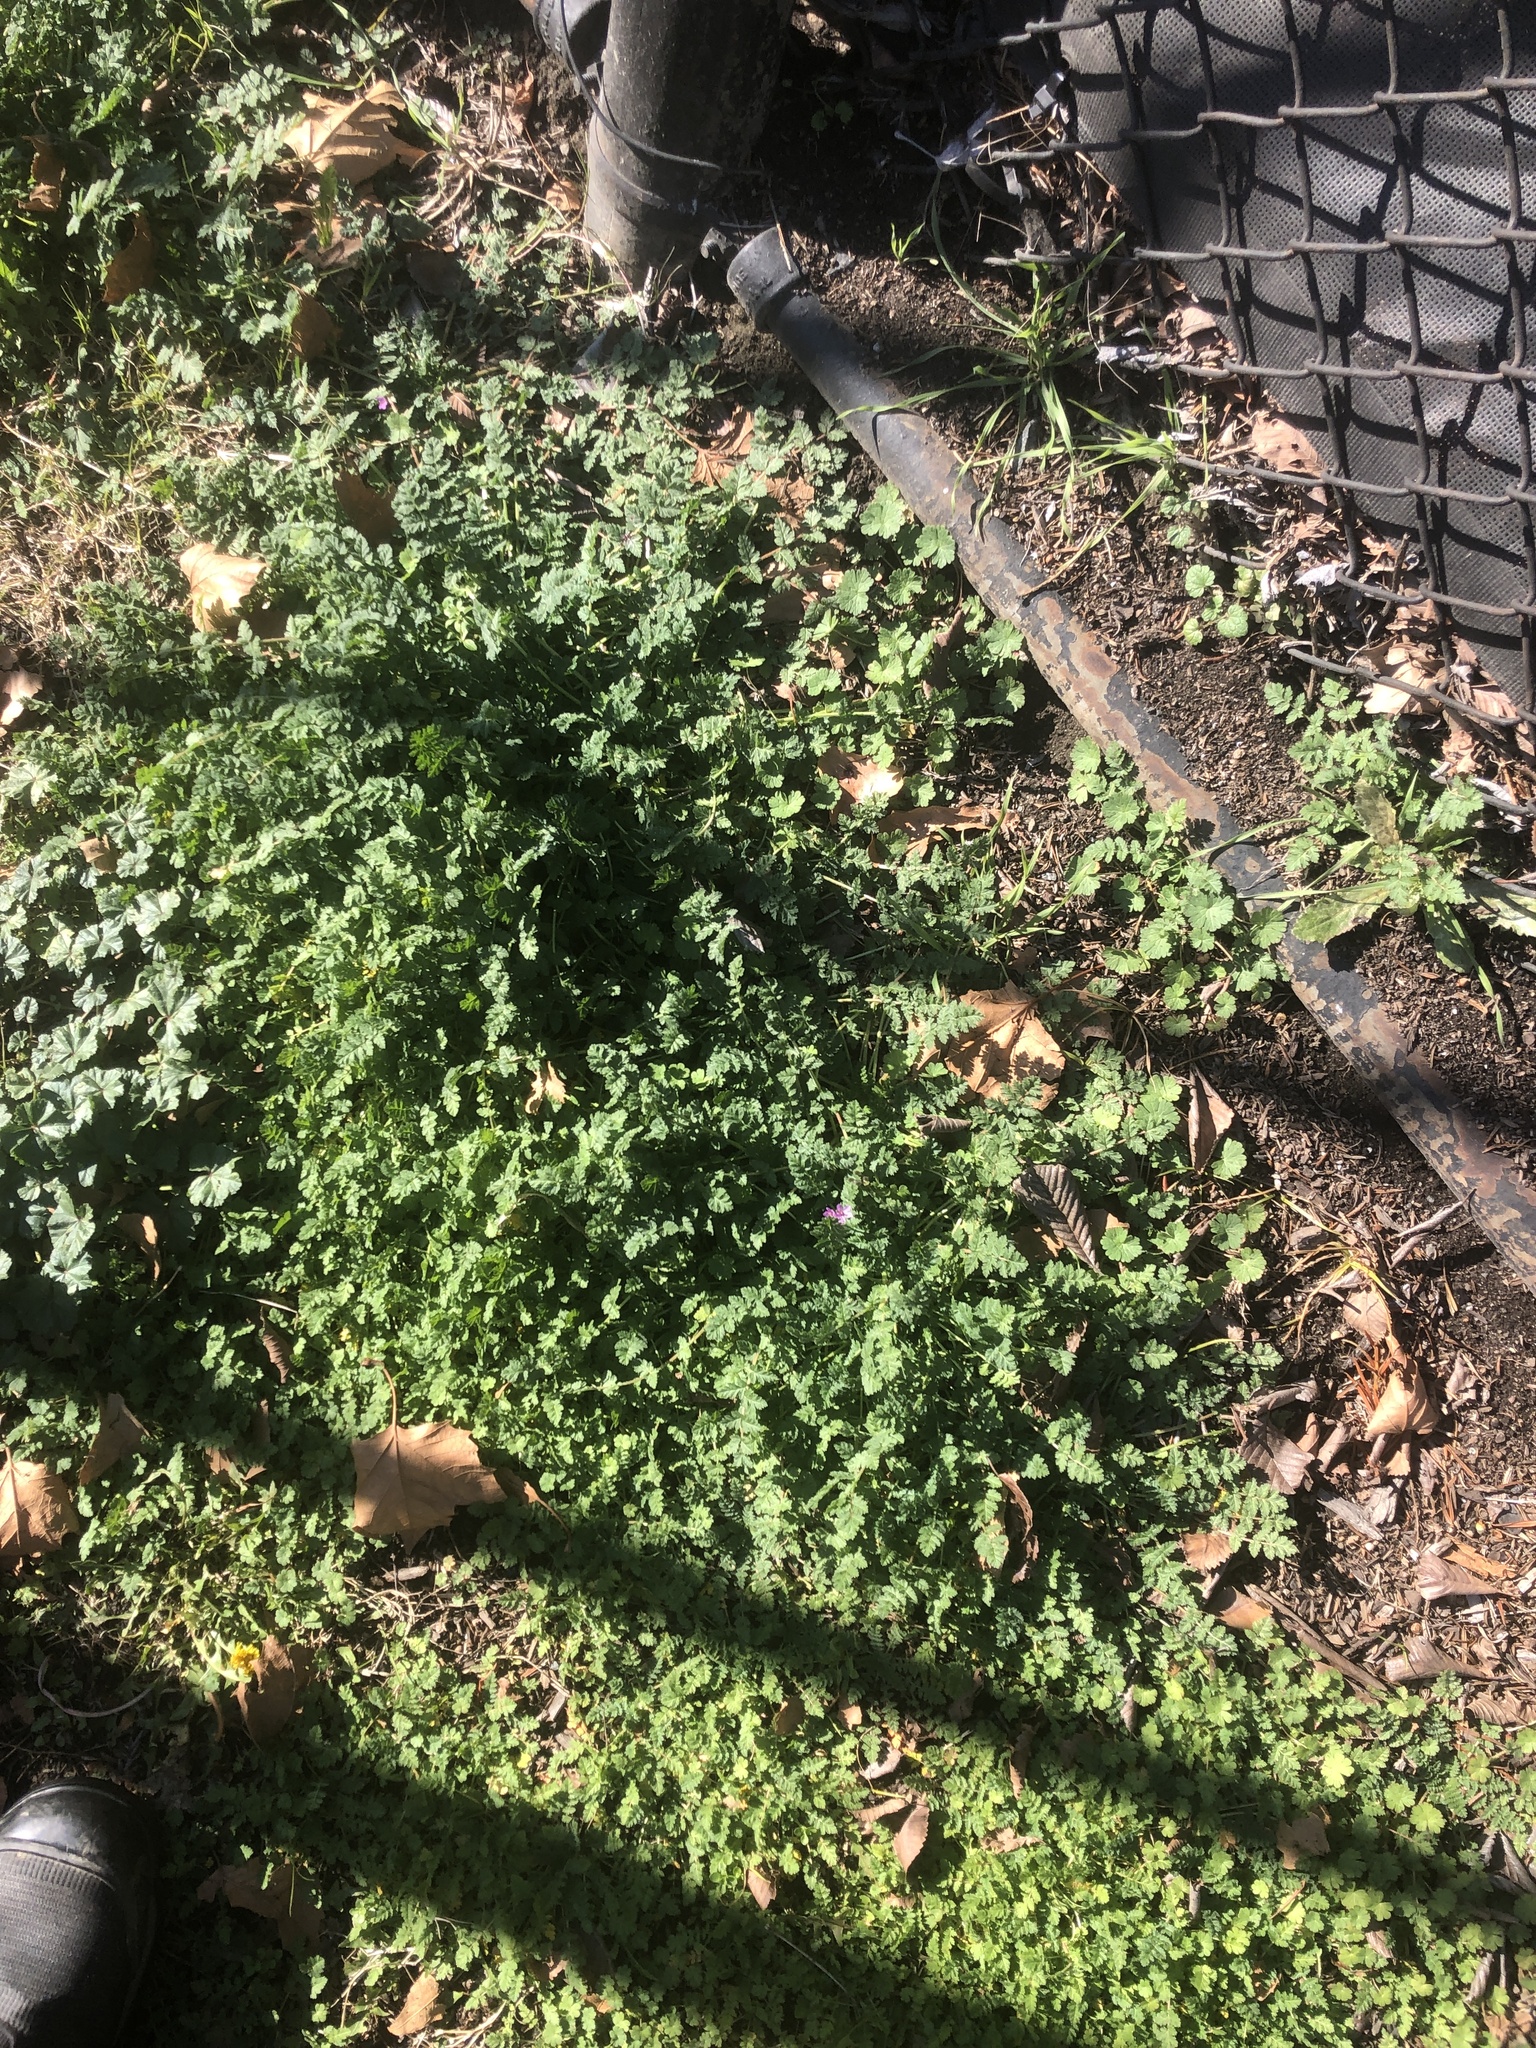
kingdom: Plantae
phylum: Tracheophyta
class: Magnoliopsida
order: Geraniales
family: Geraniaceae
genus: Erodium
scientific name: Erodium cicutarium
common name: Common stork's-bill
